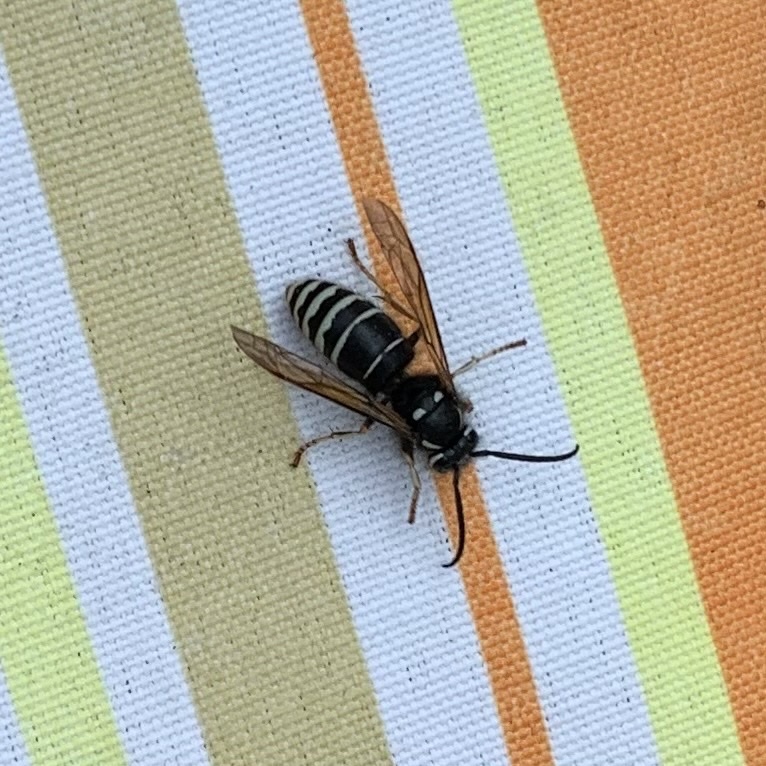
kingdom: Animalia
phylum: Arthropoda
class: Insecta
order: Hymenoptera
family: Vespidae
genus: Vespula
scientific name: Vespula consobrina
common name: Blackjacket
